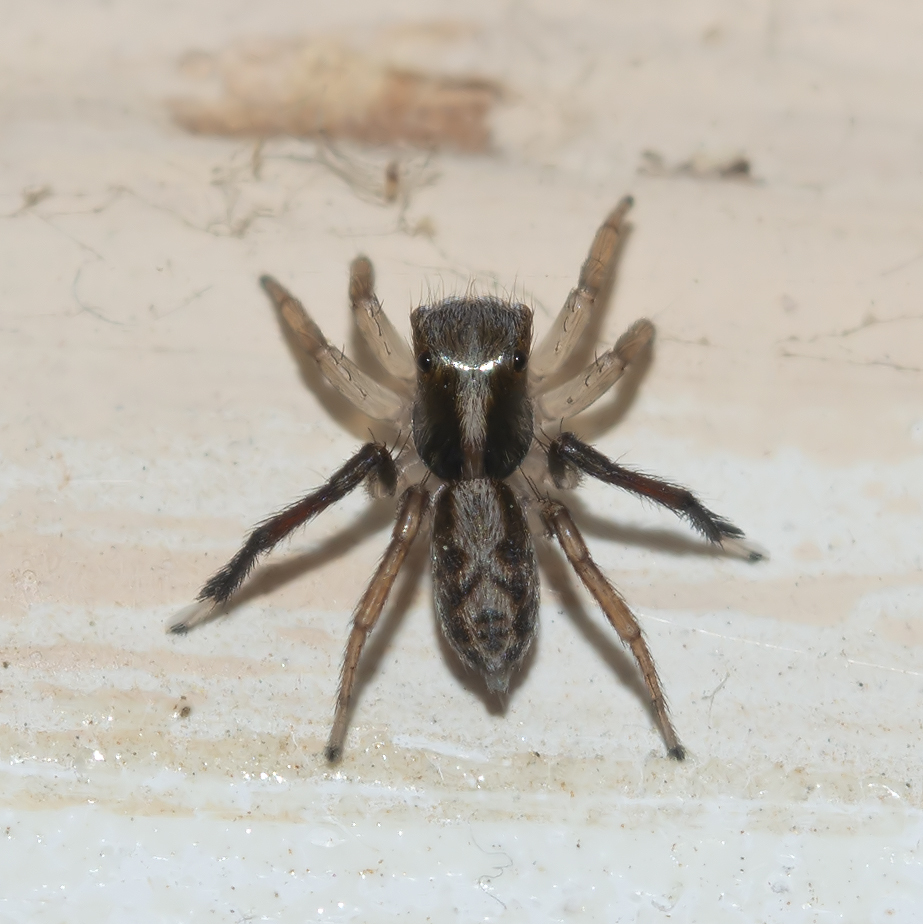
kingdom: Animalia
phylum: Arthropoda
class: Arachnida
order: Araneae
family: Salticidae
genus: Saitis
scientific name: Saitis tauricus
